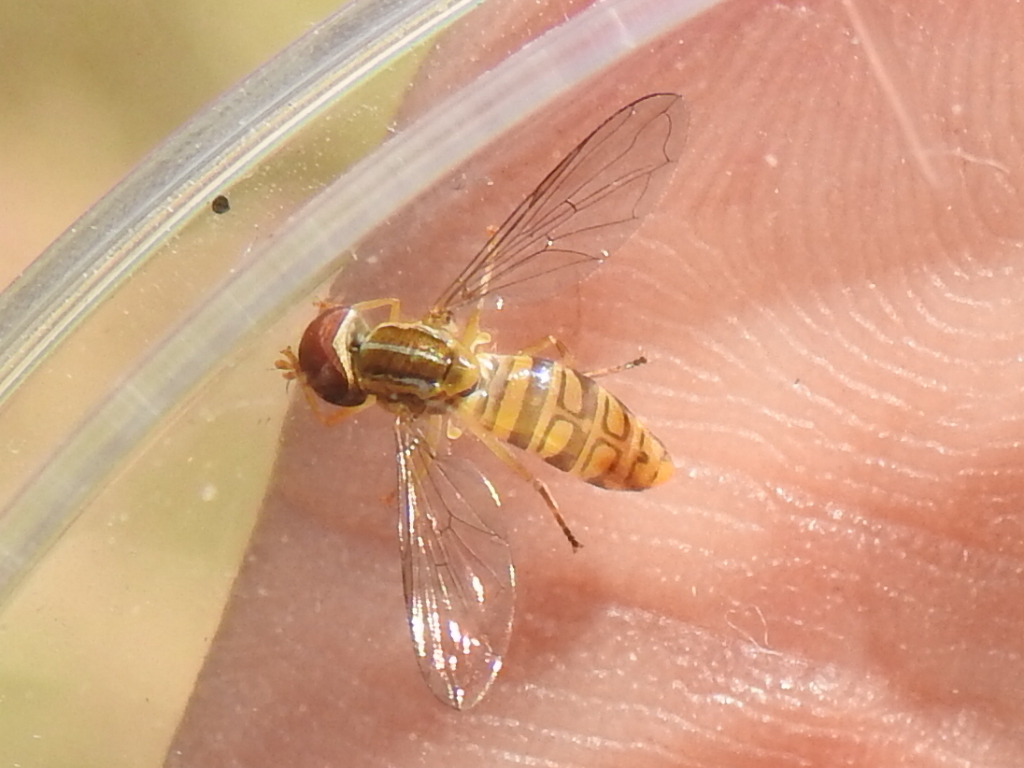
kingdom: Animalia
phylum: Arthropoda
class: Insecta
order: Diptera
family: Syrphidae
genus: Toxomerus
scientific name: Toxomerus politus
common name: Maize calligrapher
